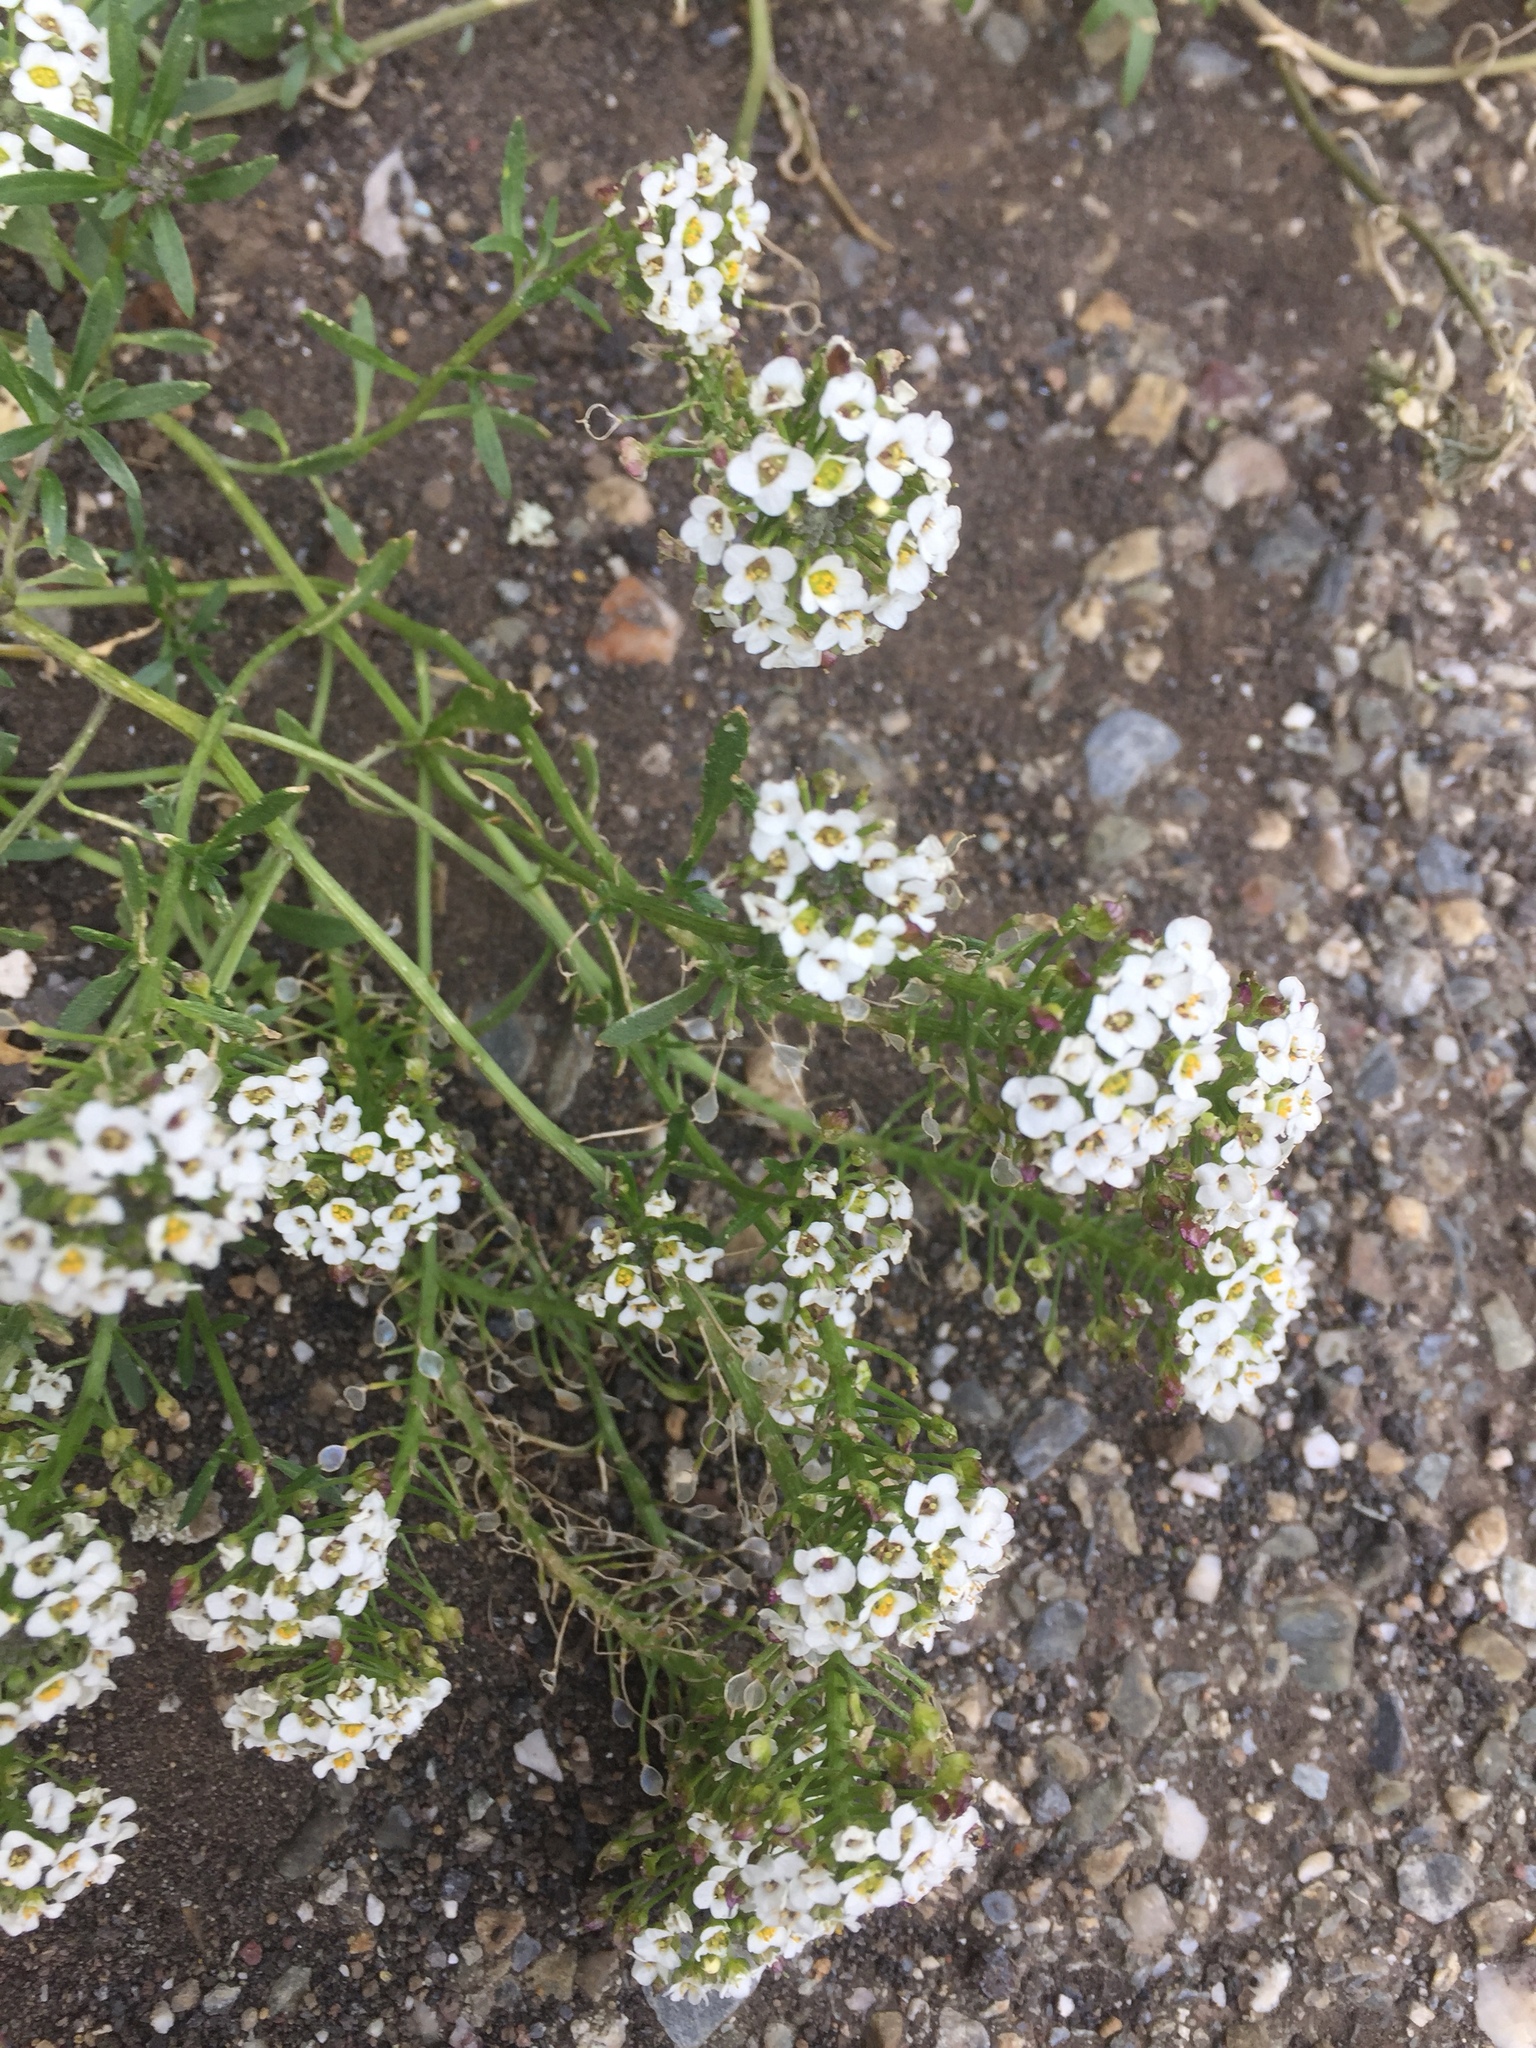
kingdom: Plantae
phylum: Tracheophyta
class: Magnoliopsida
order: Brassicales
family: Brassicaceae
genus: Lobularia
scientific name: Lobularia maritima
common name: Sweet alison
